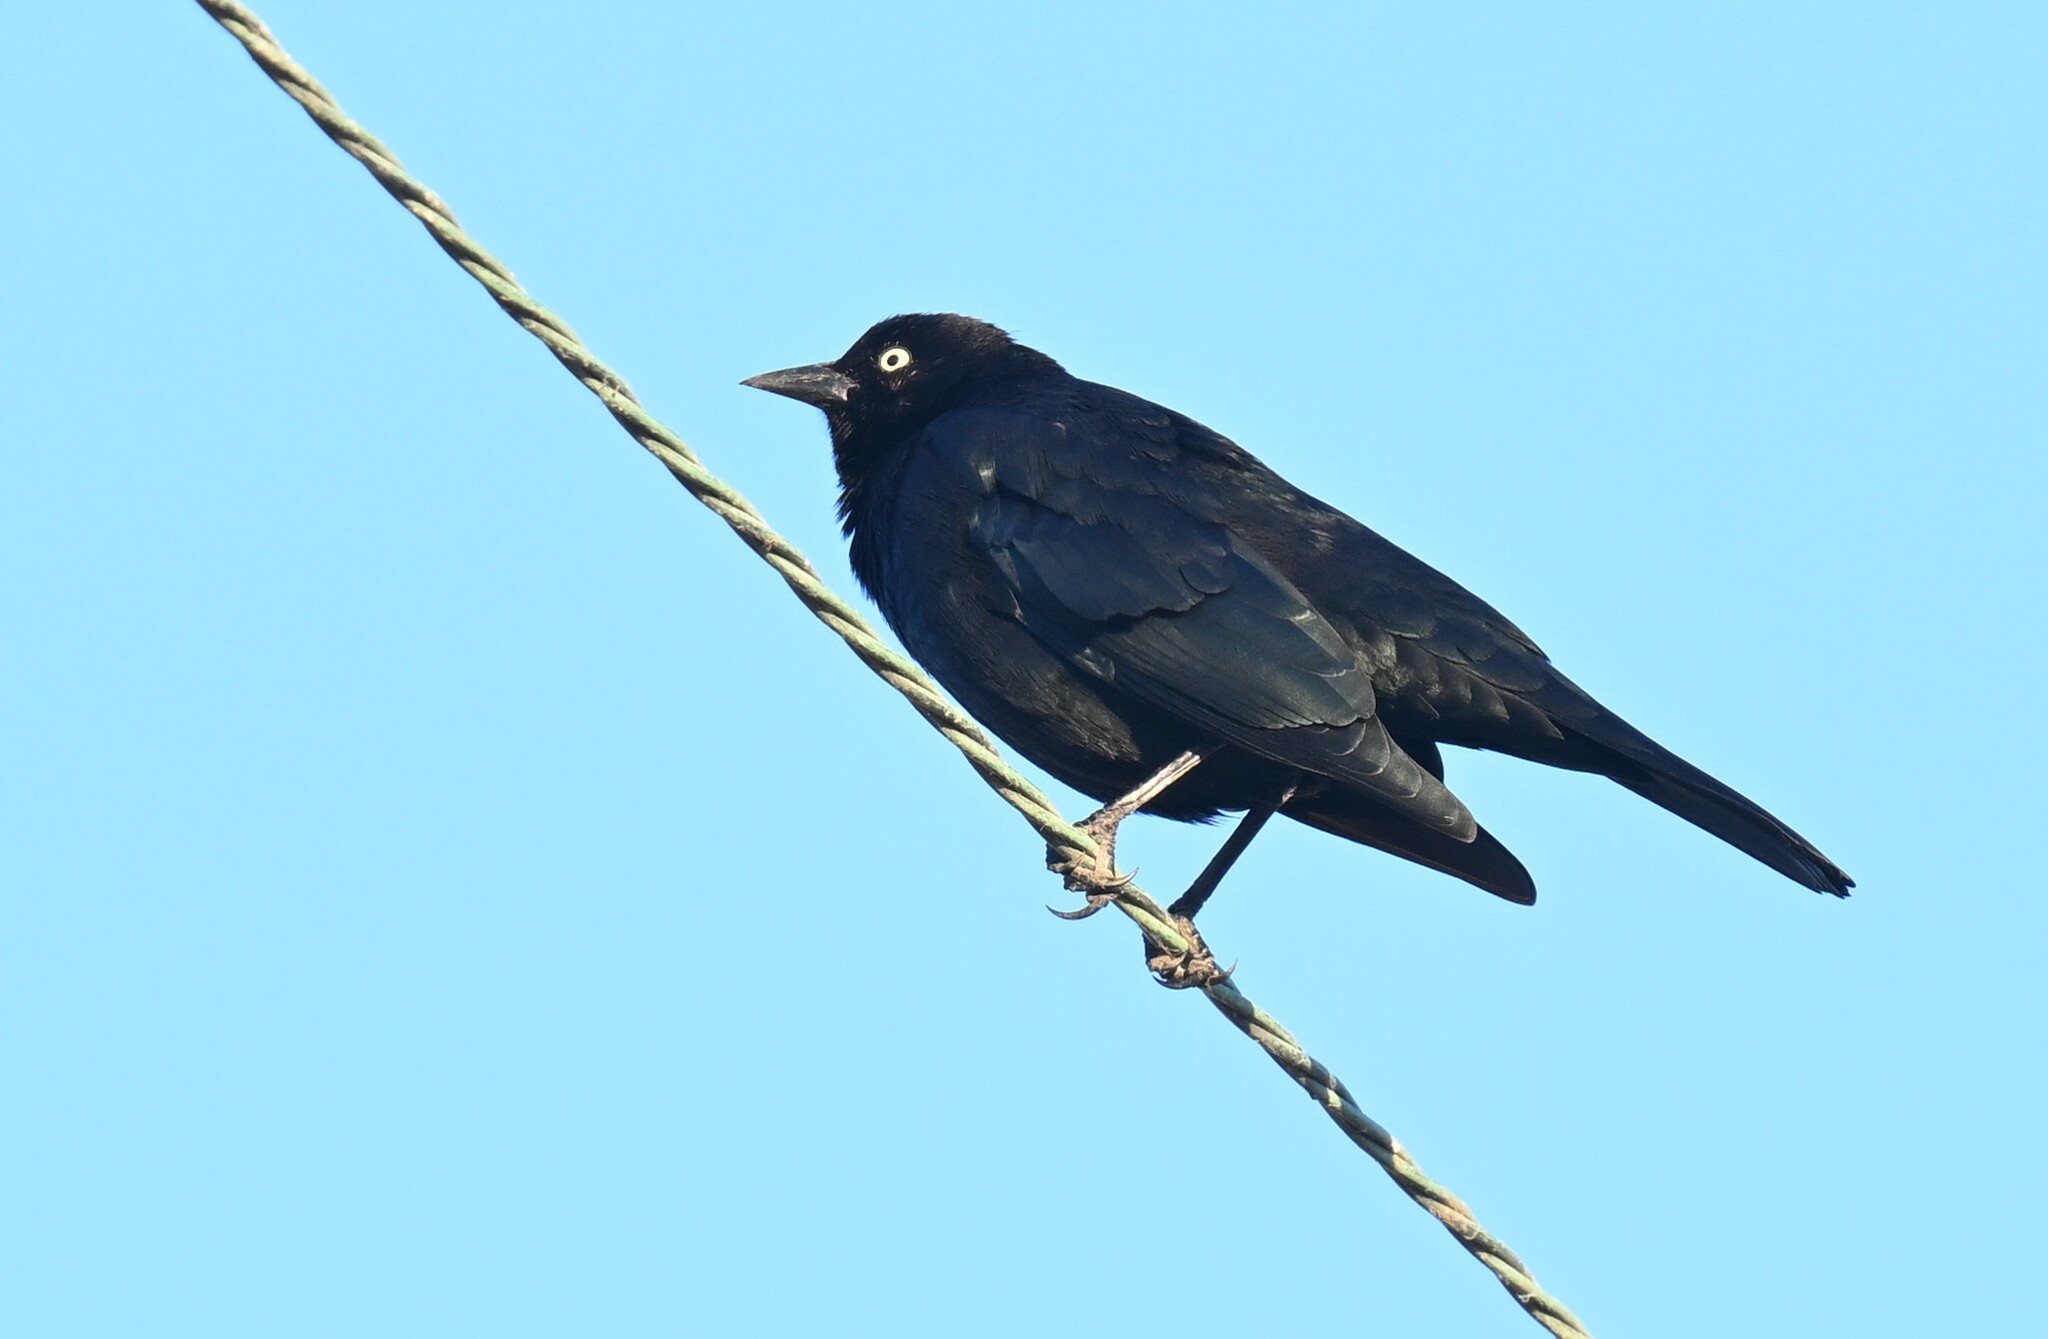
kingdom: Animalia
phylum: Chordata
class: Aves
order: Passeriformes
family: Icteridae
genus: Euphagus
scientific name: Euphagus cyanocephalus
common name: Brewer's blackbird
